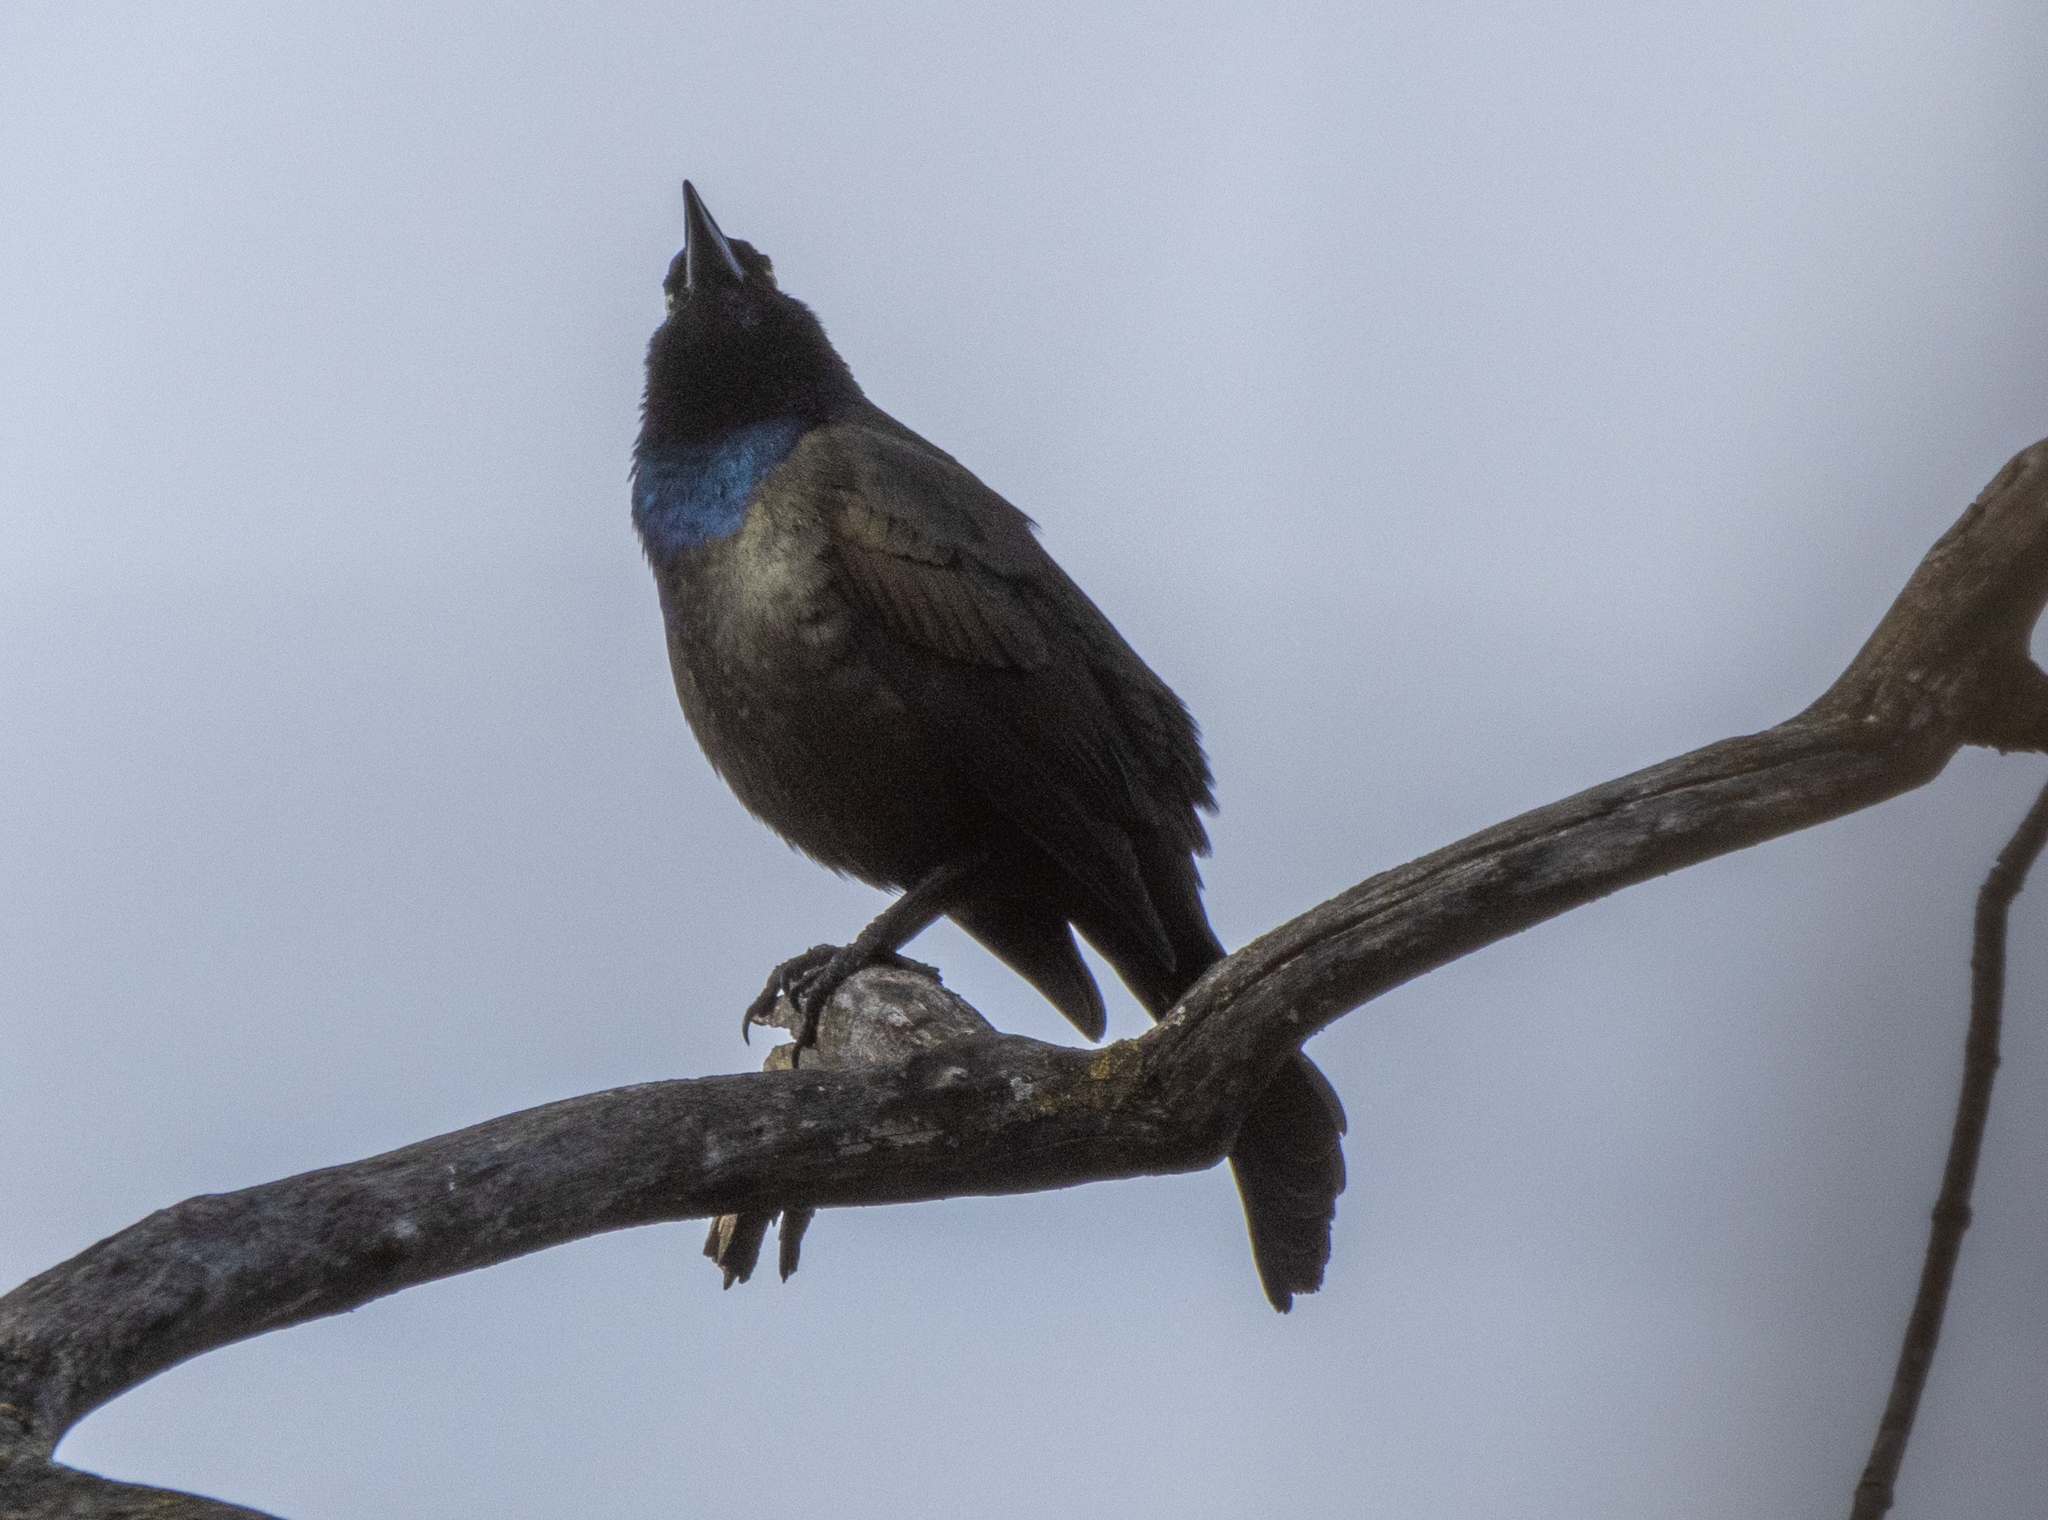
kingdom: Animalia
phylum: Chordata
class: Aves
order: Passeriformes
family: Icteridae
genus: Quiscalus
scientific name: Quiscalus quiscula
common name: Common grackle
